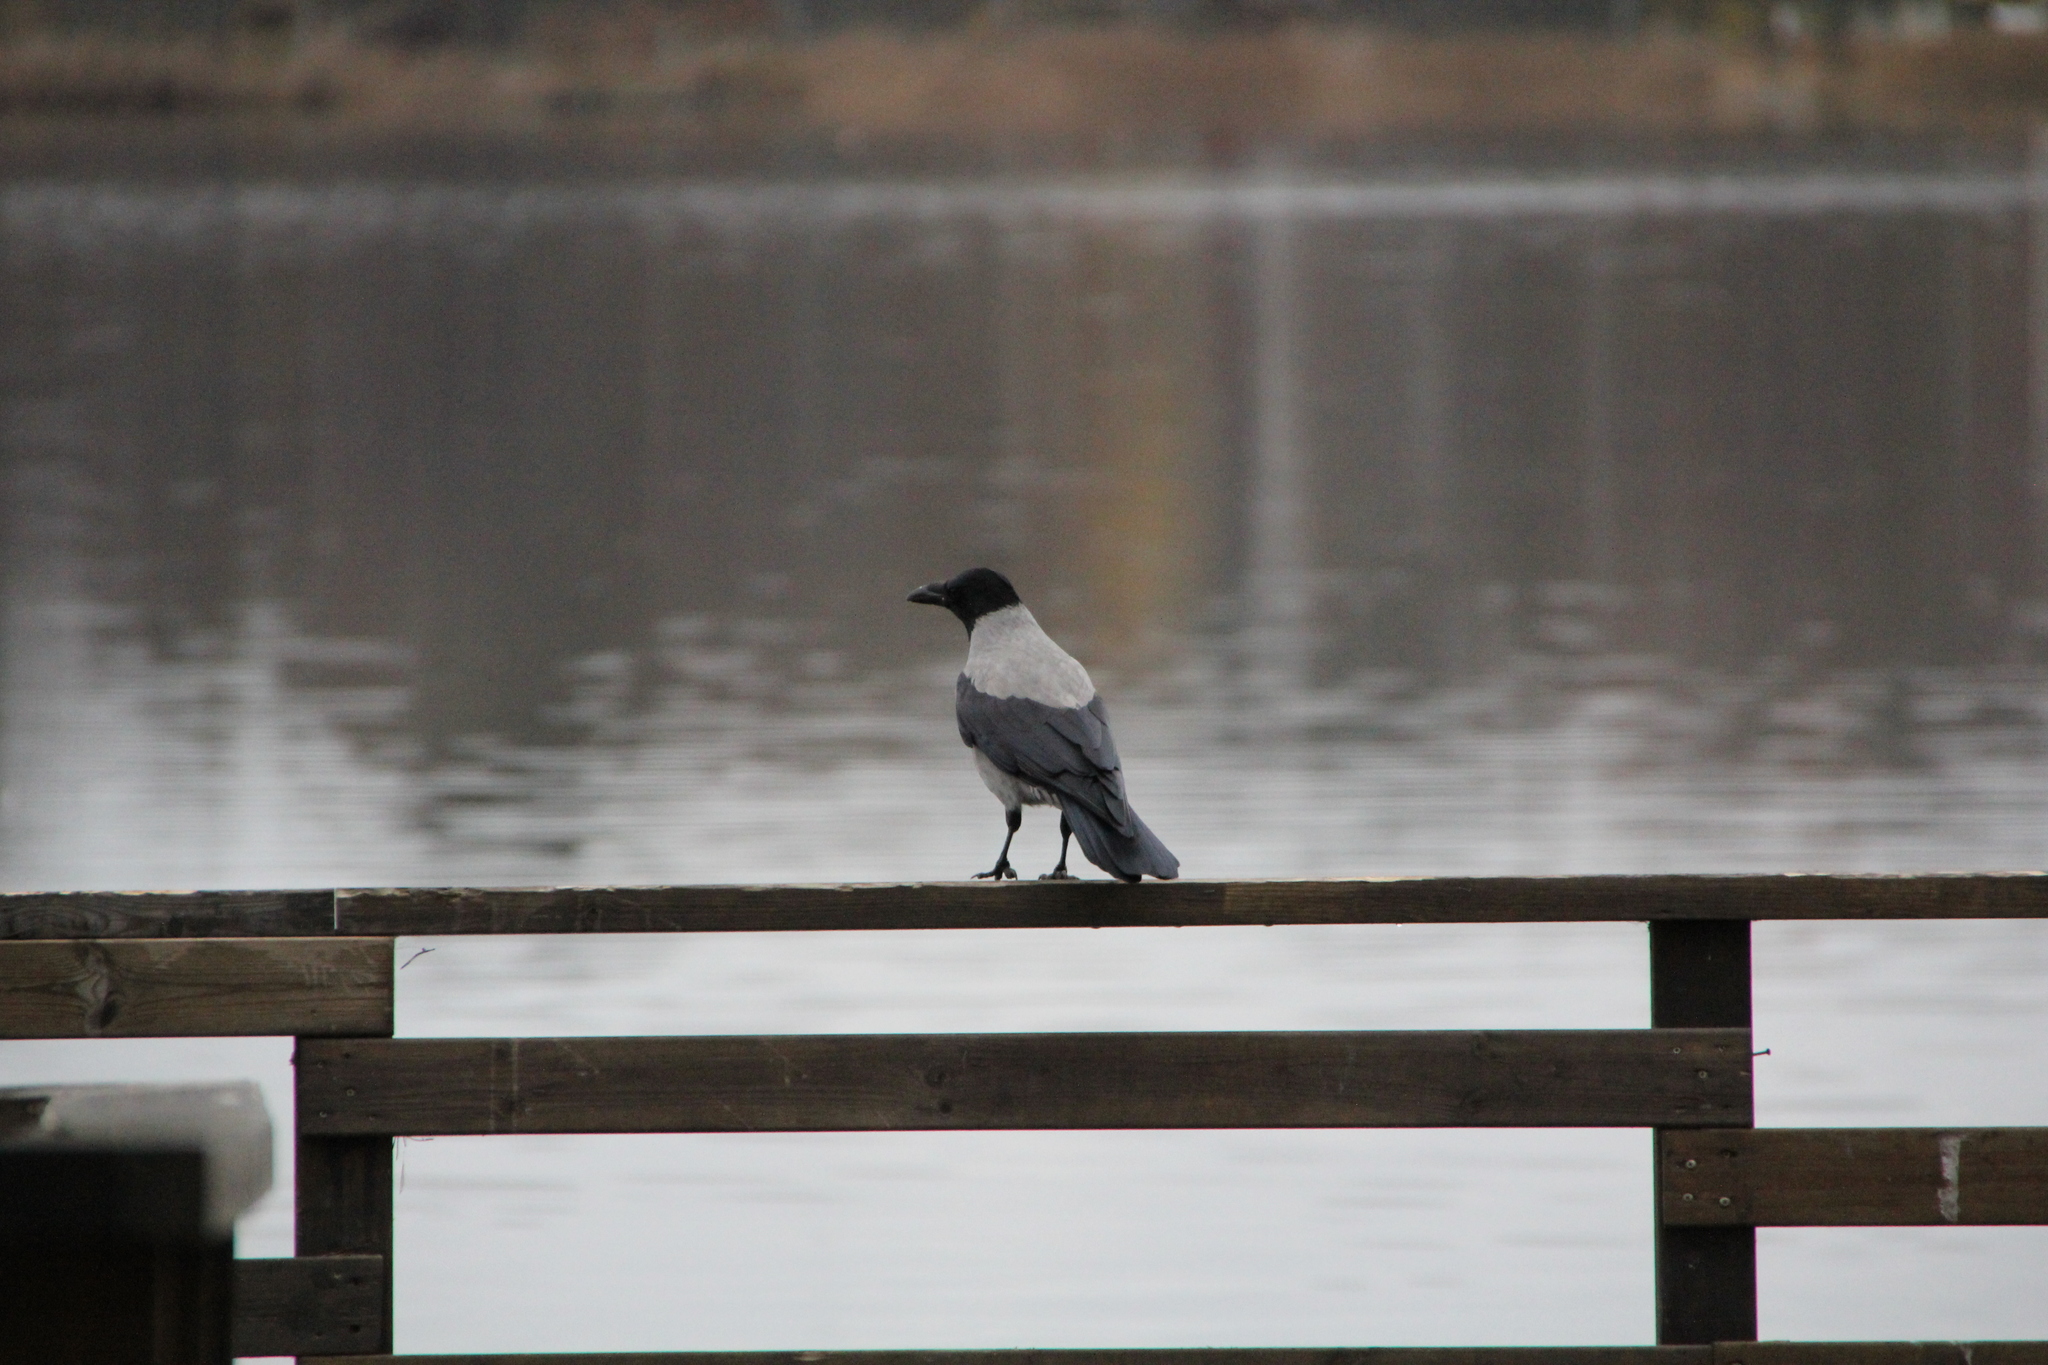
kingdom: Animalia
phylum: Chordata
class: Aves
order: Passeriformes
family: Corvidae
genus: Corvus
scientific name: Corvus cornix
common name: Hooded crow
